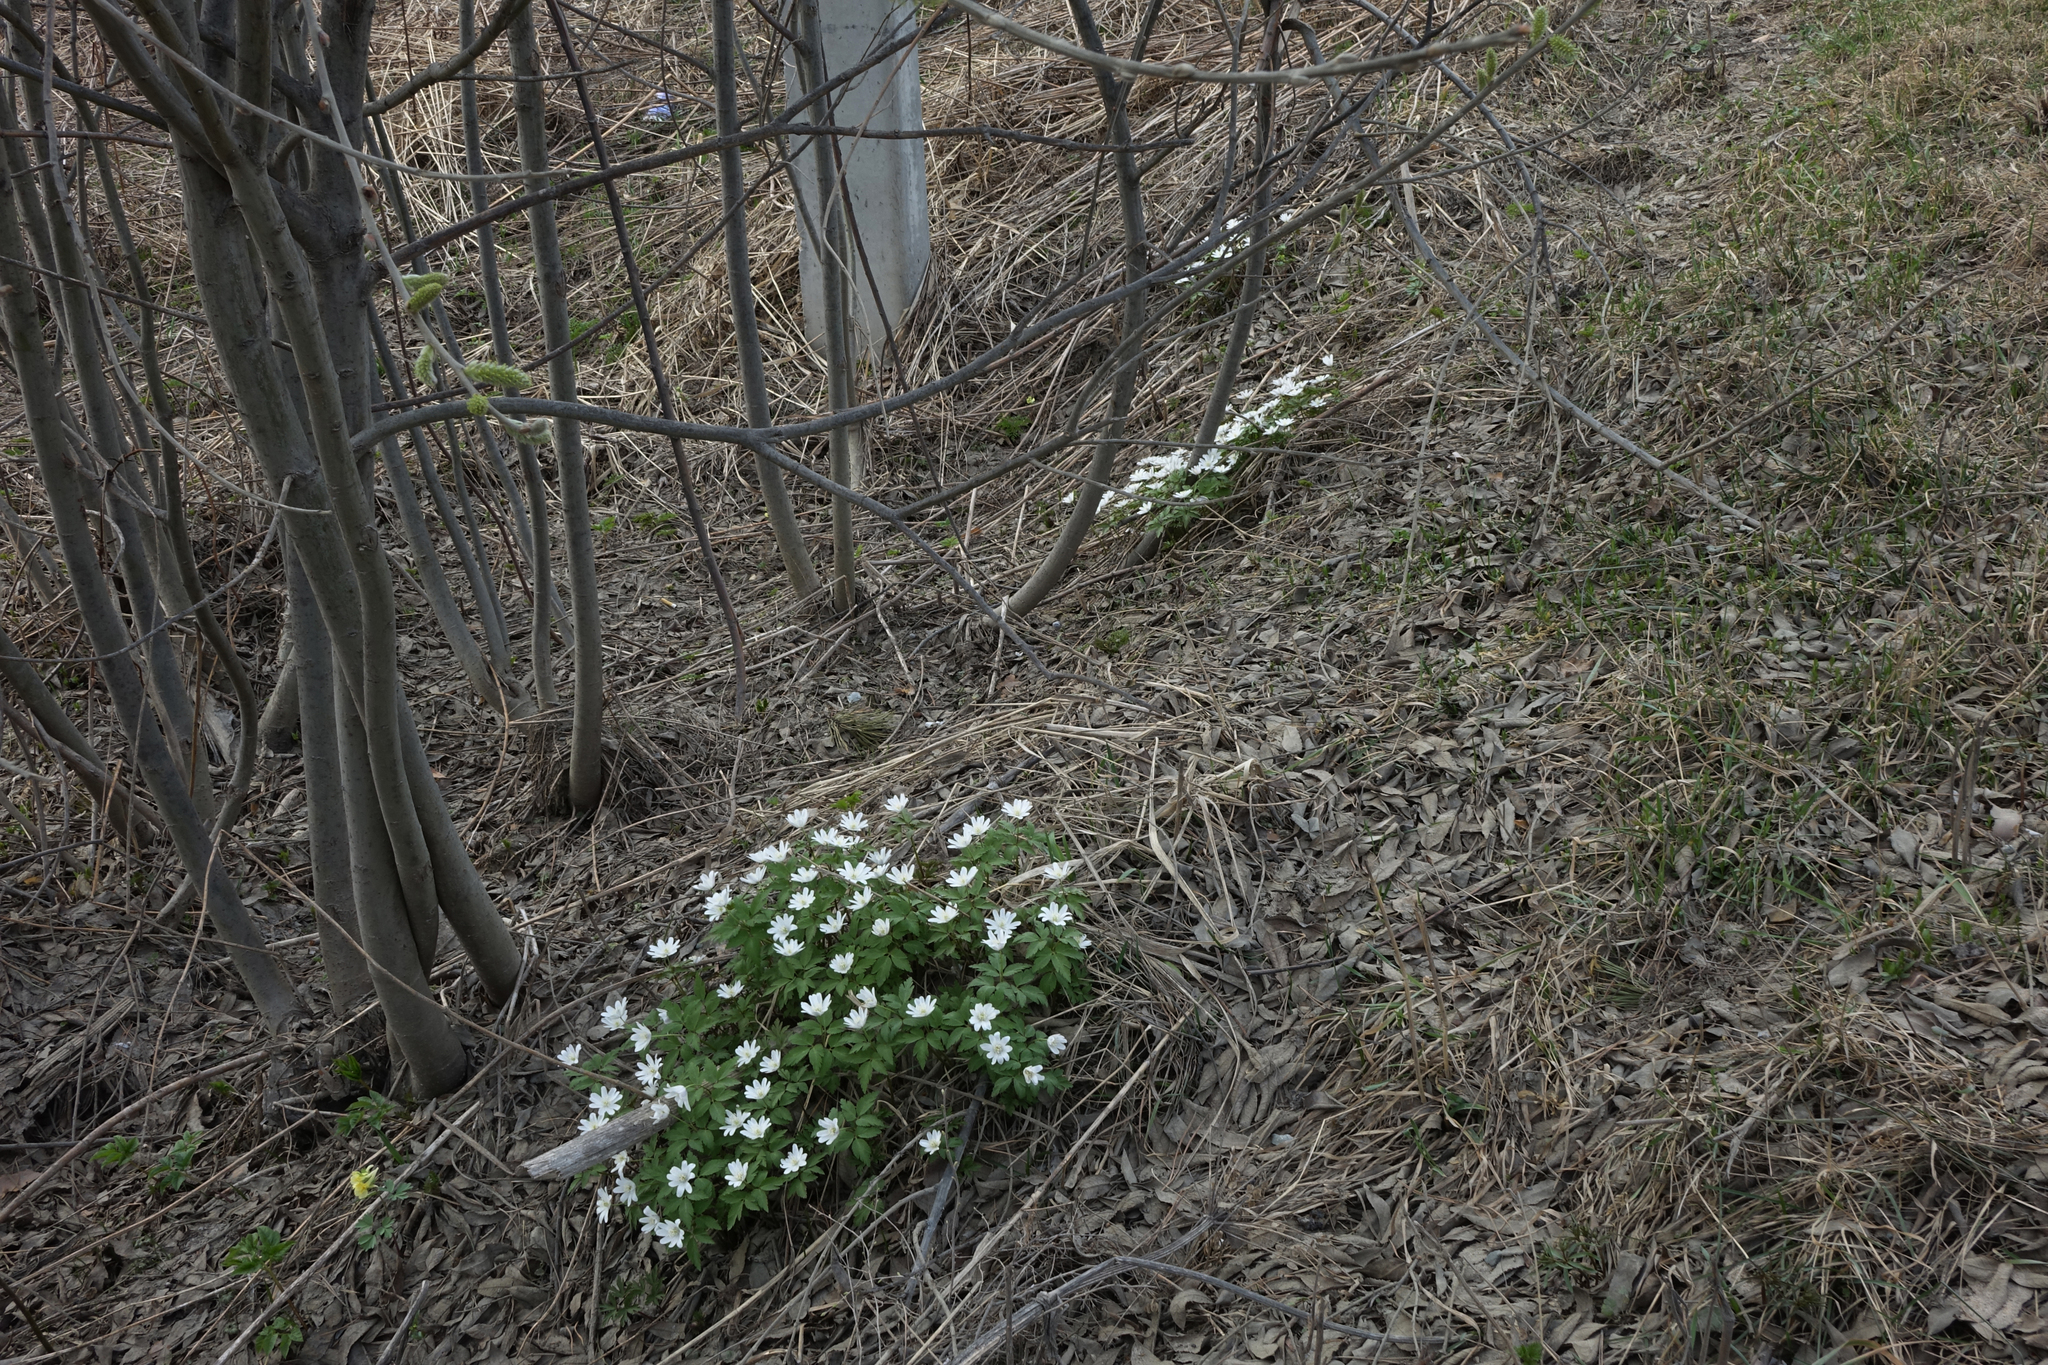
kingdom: Plantae
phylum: Tracheophyta
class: Magnoliopsida
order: Ranunculales
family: Ranunculaceae
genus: Anemone
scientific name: Anemone altaica
